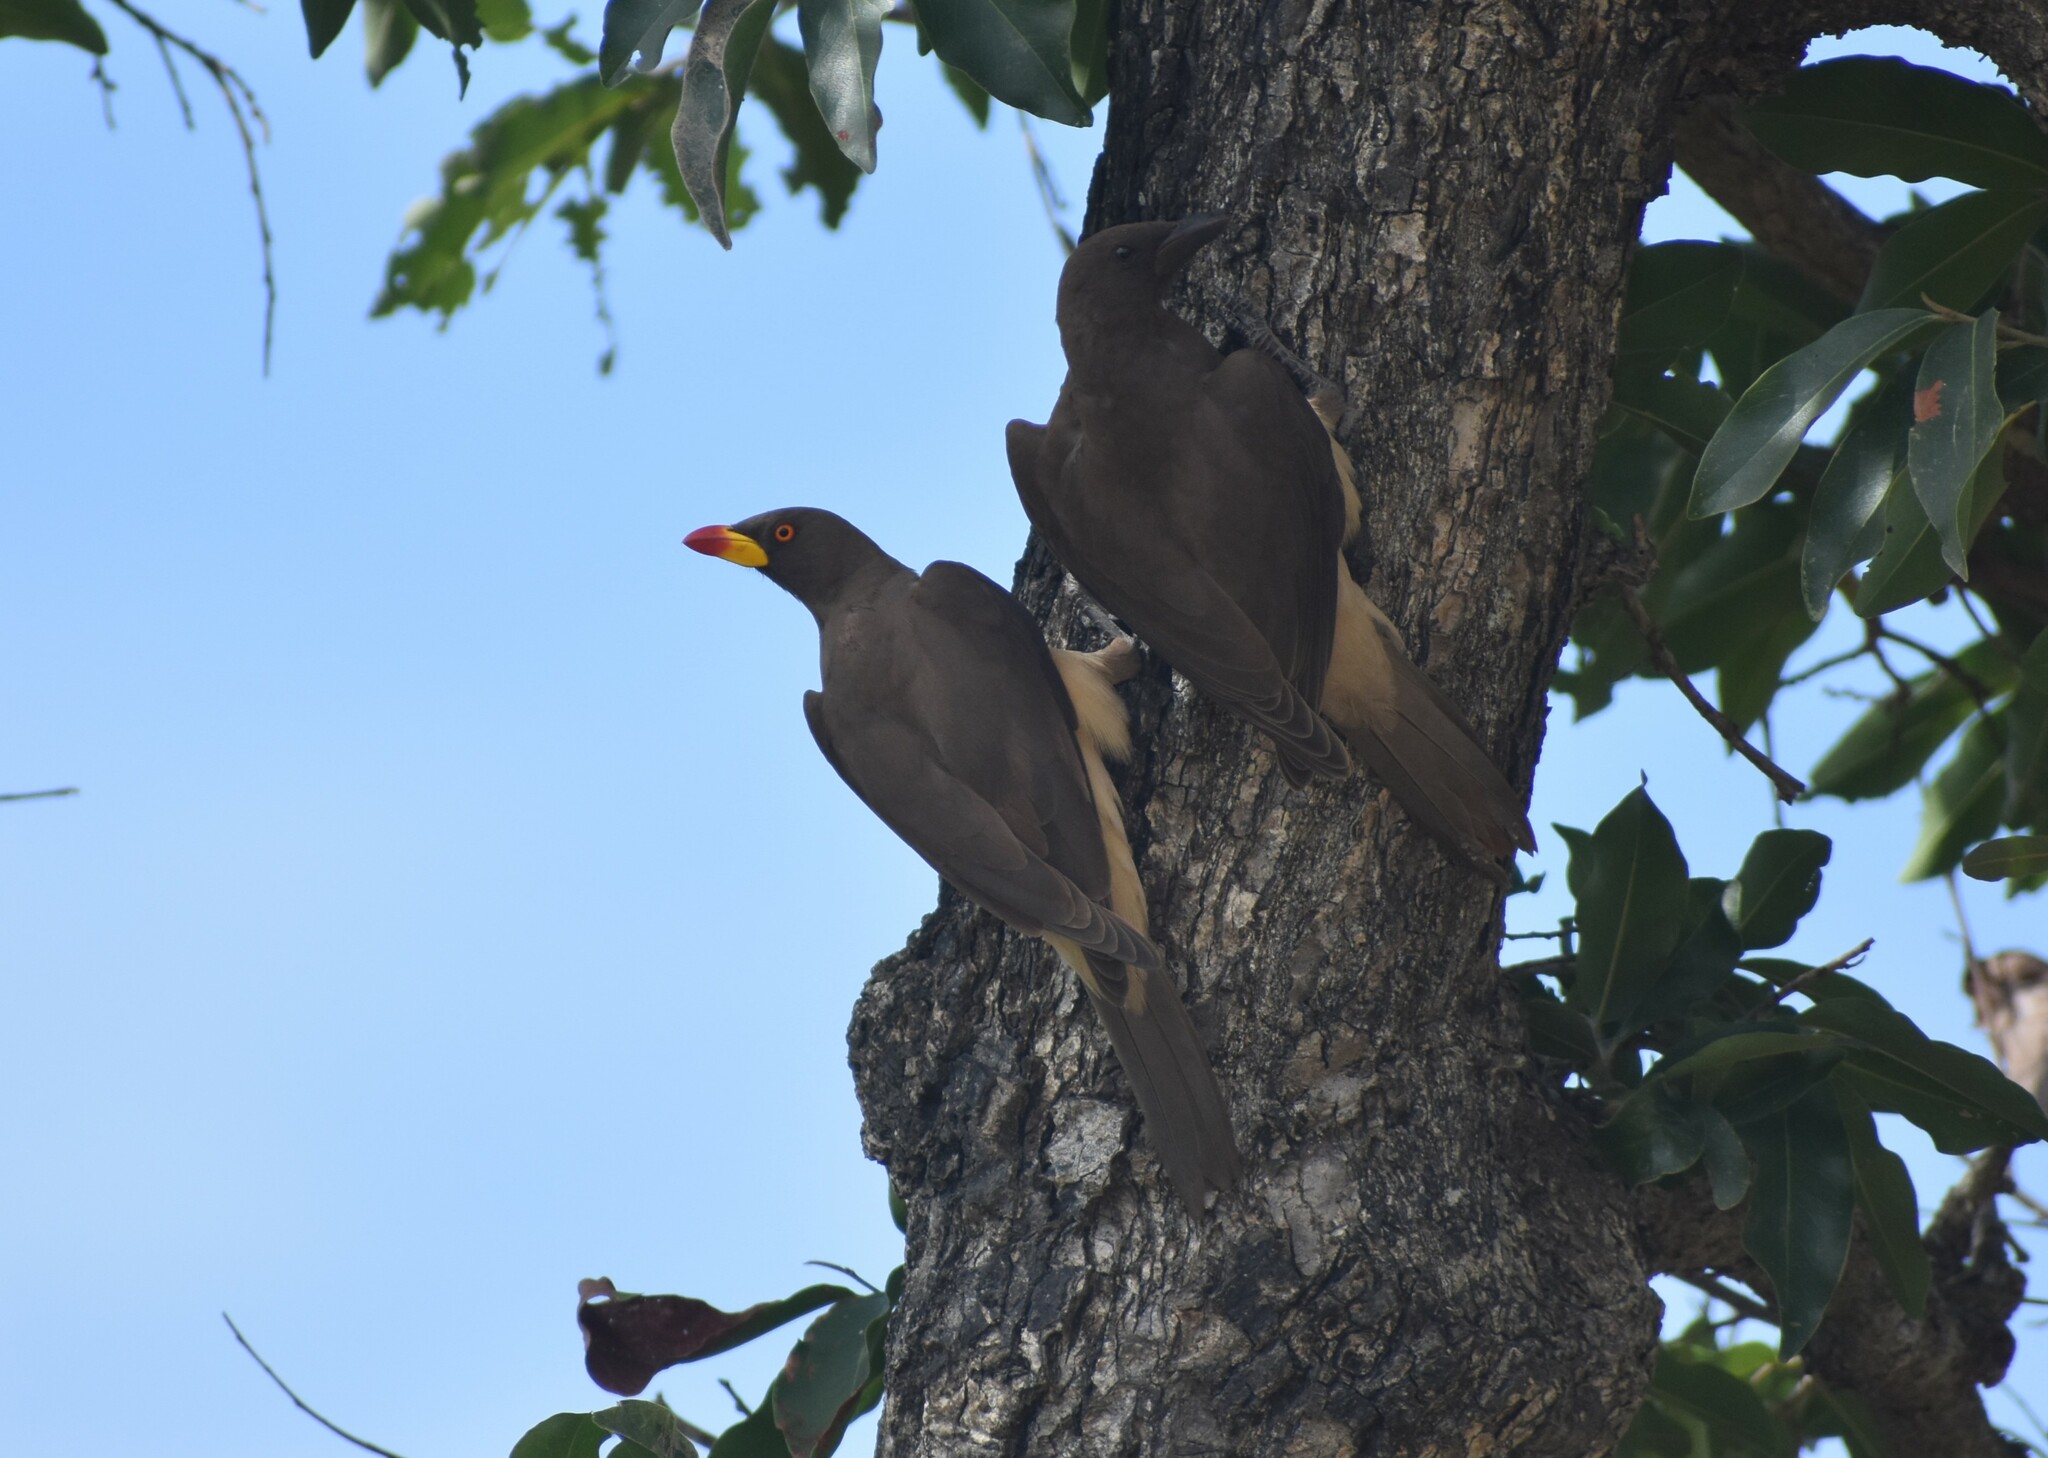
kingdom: Animalia
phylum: Chordata
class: Aves
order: Passeriformes
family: Buphagidae
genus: Buphagus
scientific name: Buphagus africanus
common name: Yellow-billed oxpecker
